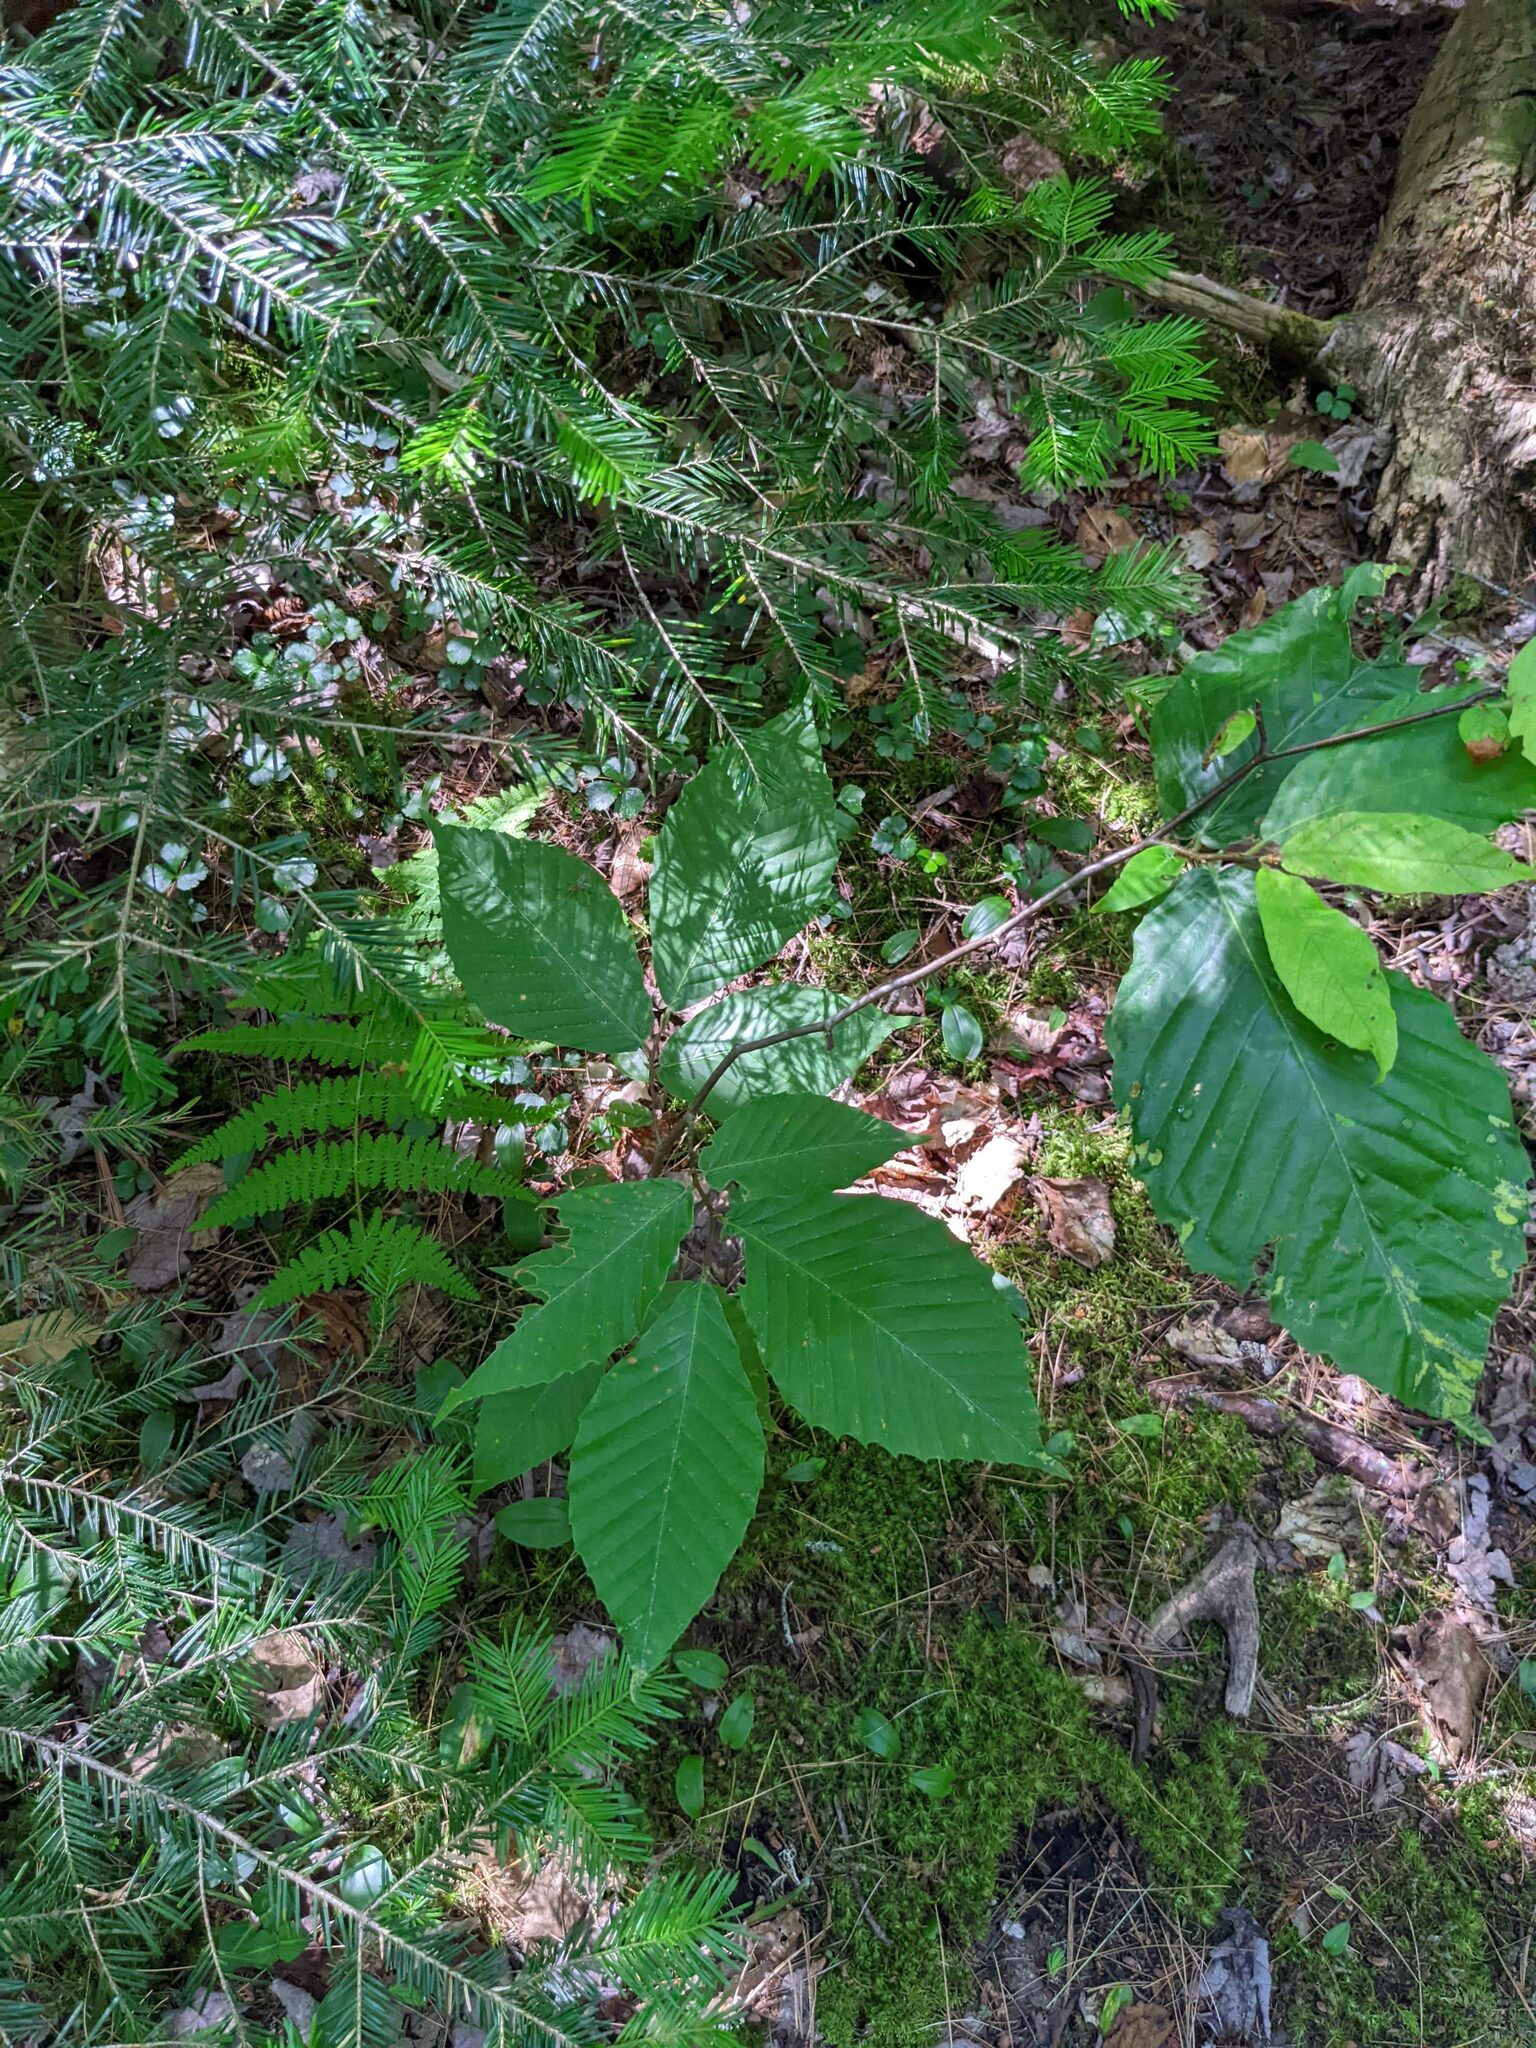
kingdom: Plantae
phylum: Tracheophyta
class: Magnoliopsida
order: Fagales
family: Fagaceae
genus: Fagus
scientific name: Fagus grandifolia
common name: American beech
